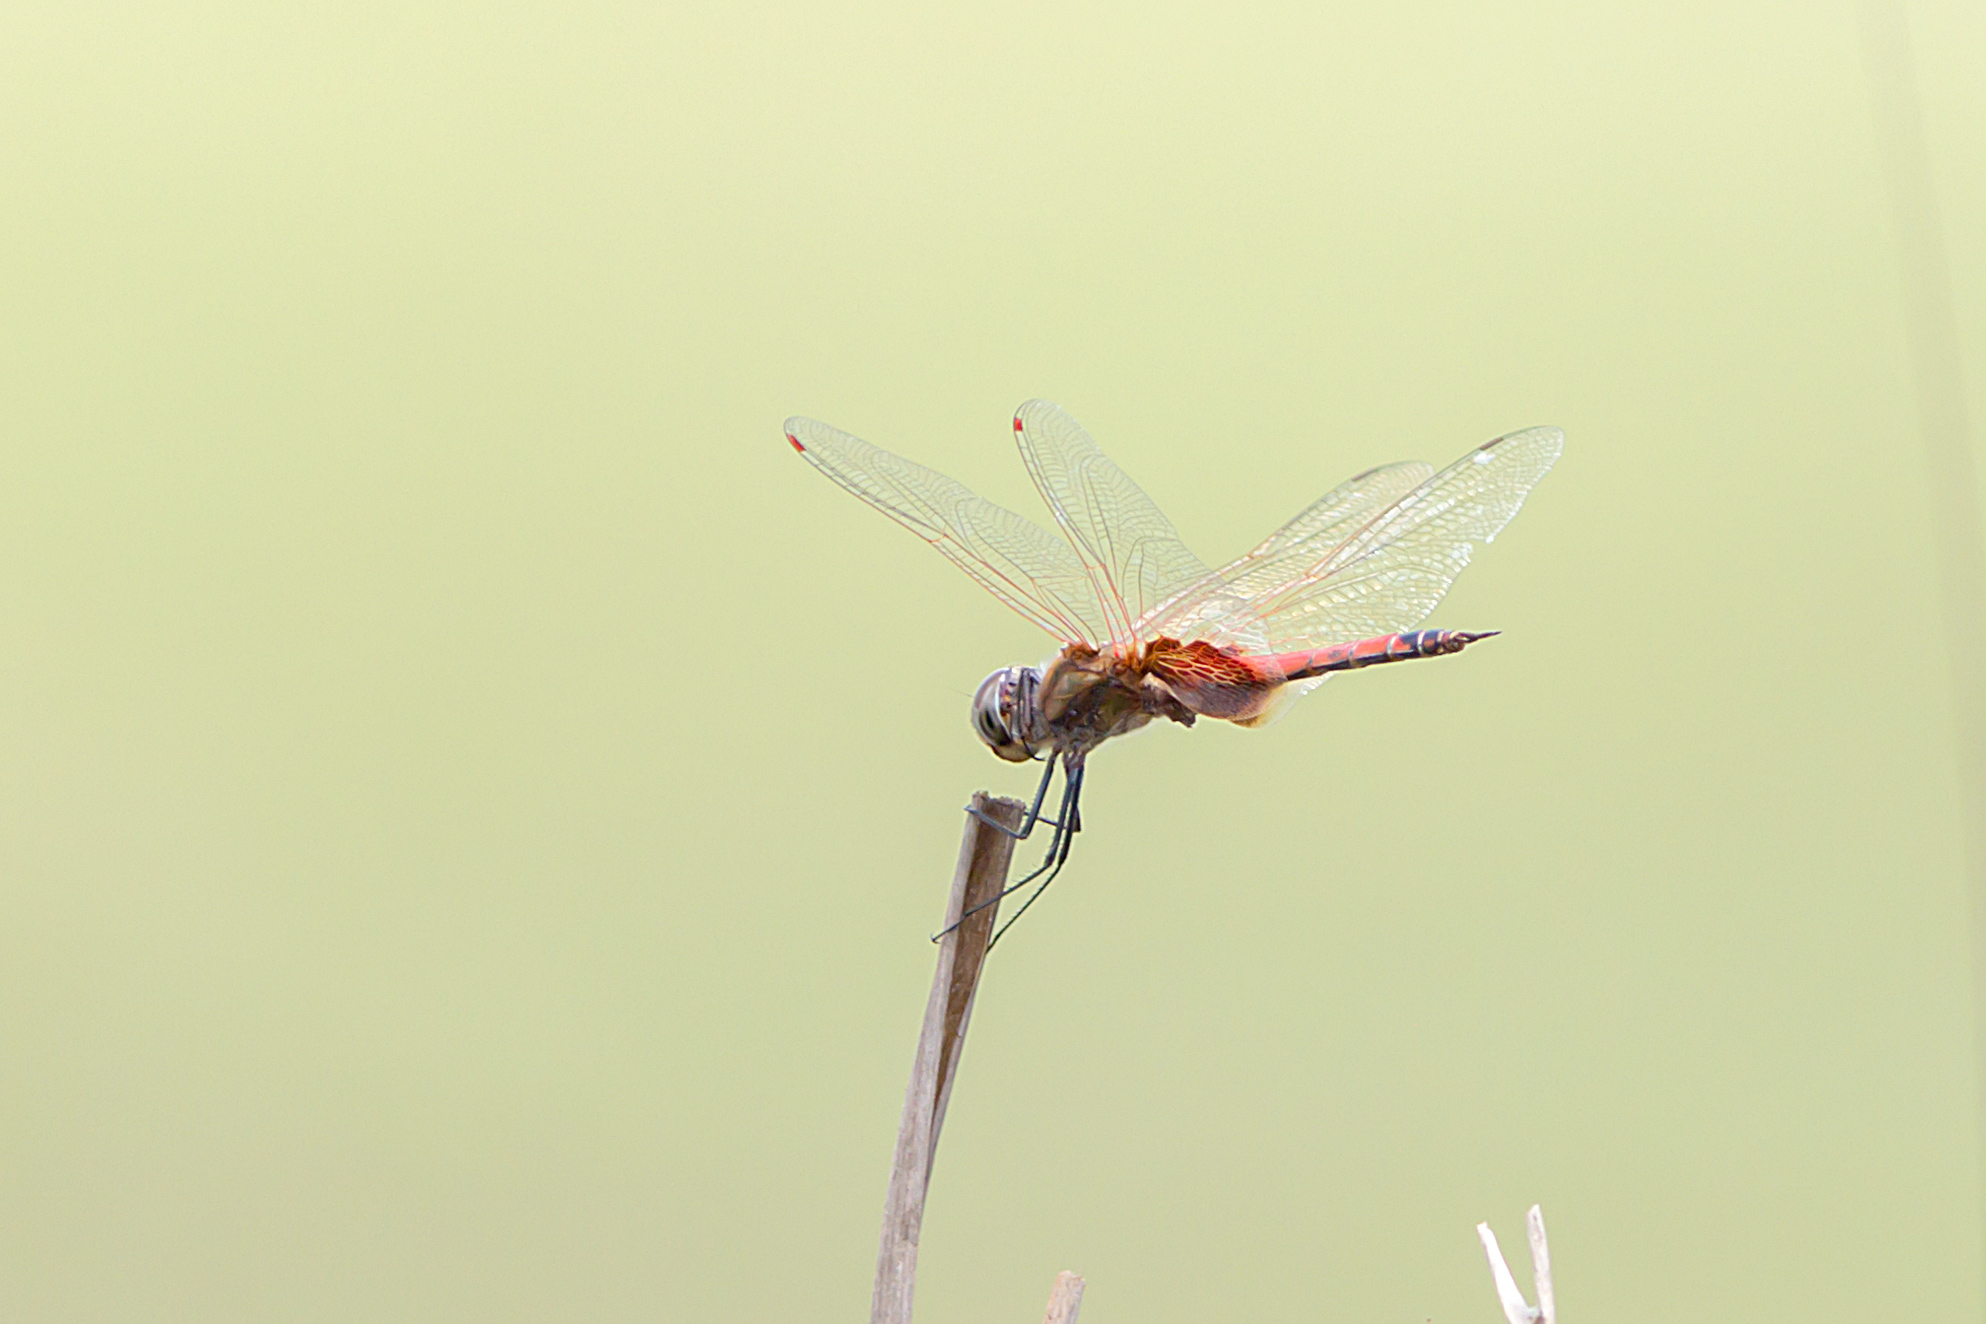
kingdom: Animalia
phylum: Arthropoda
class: Insecta
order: Odonata
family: Libellulidae
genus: Tramea
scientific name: Tramea loewii
